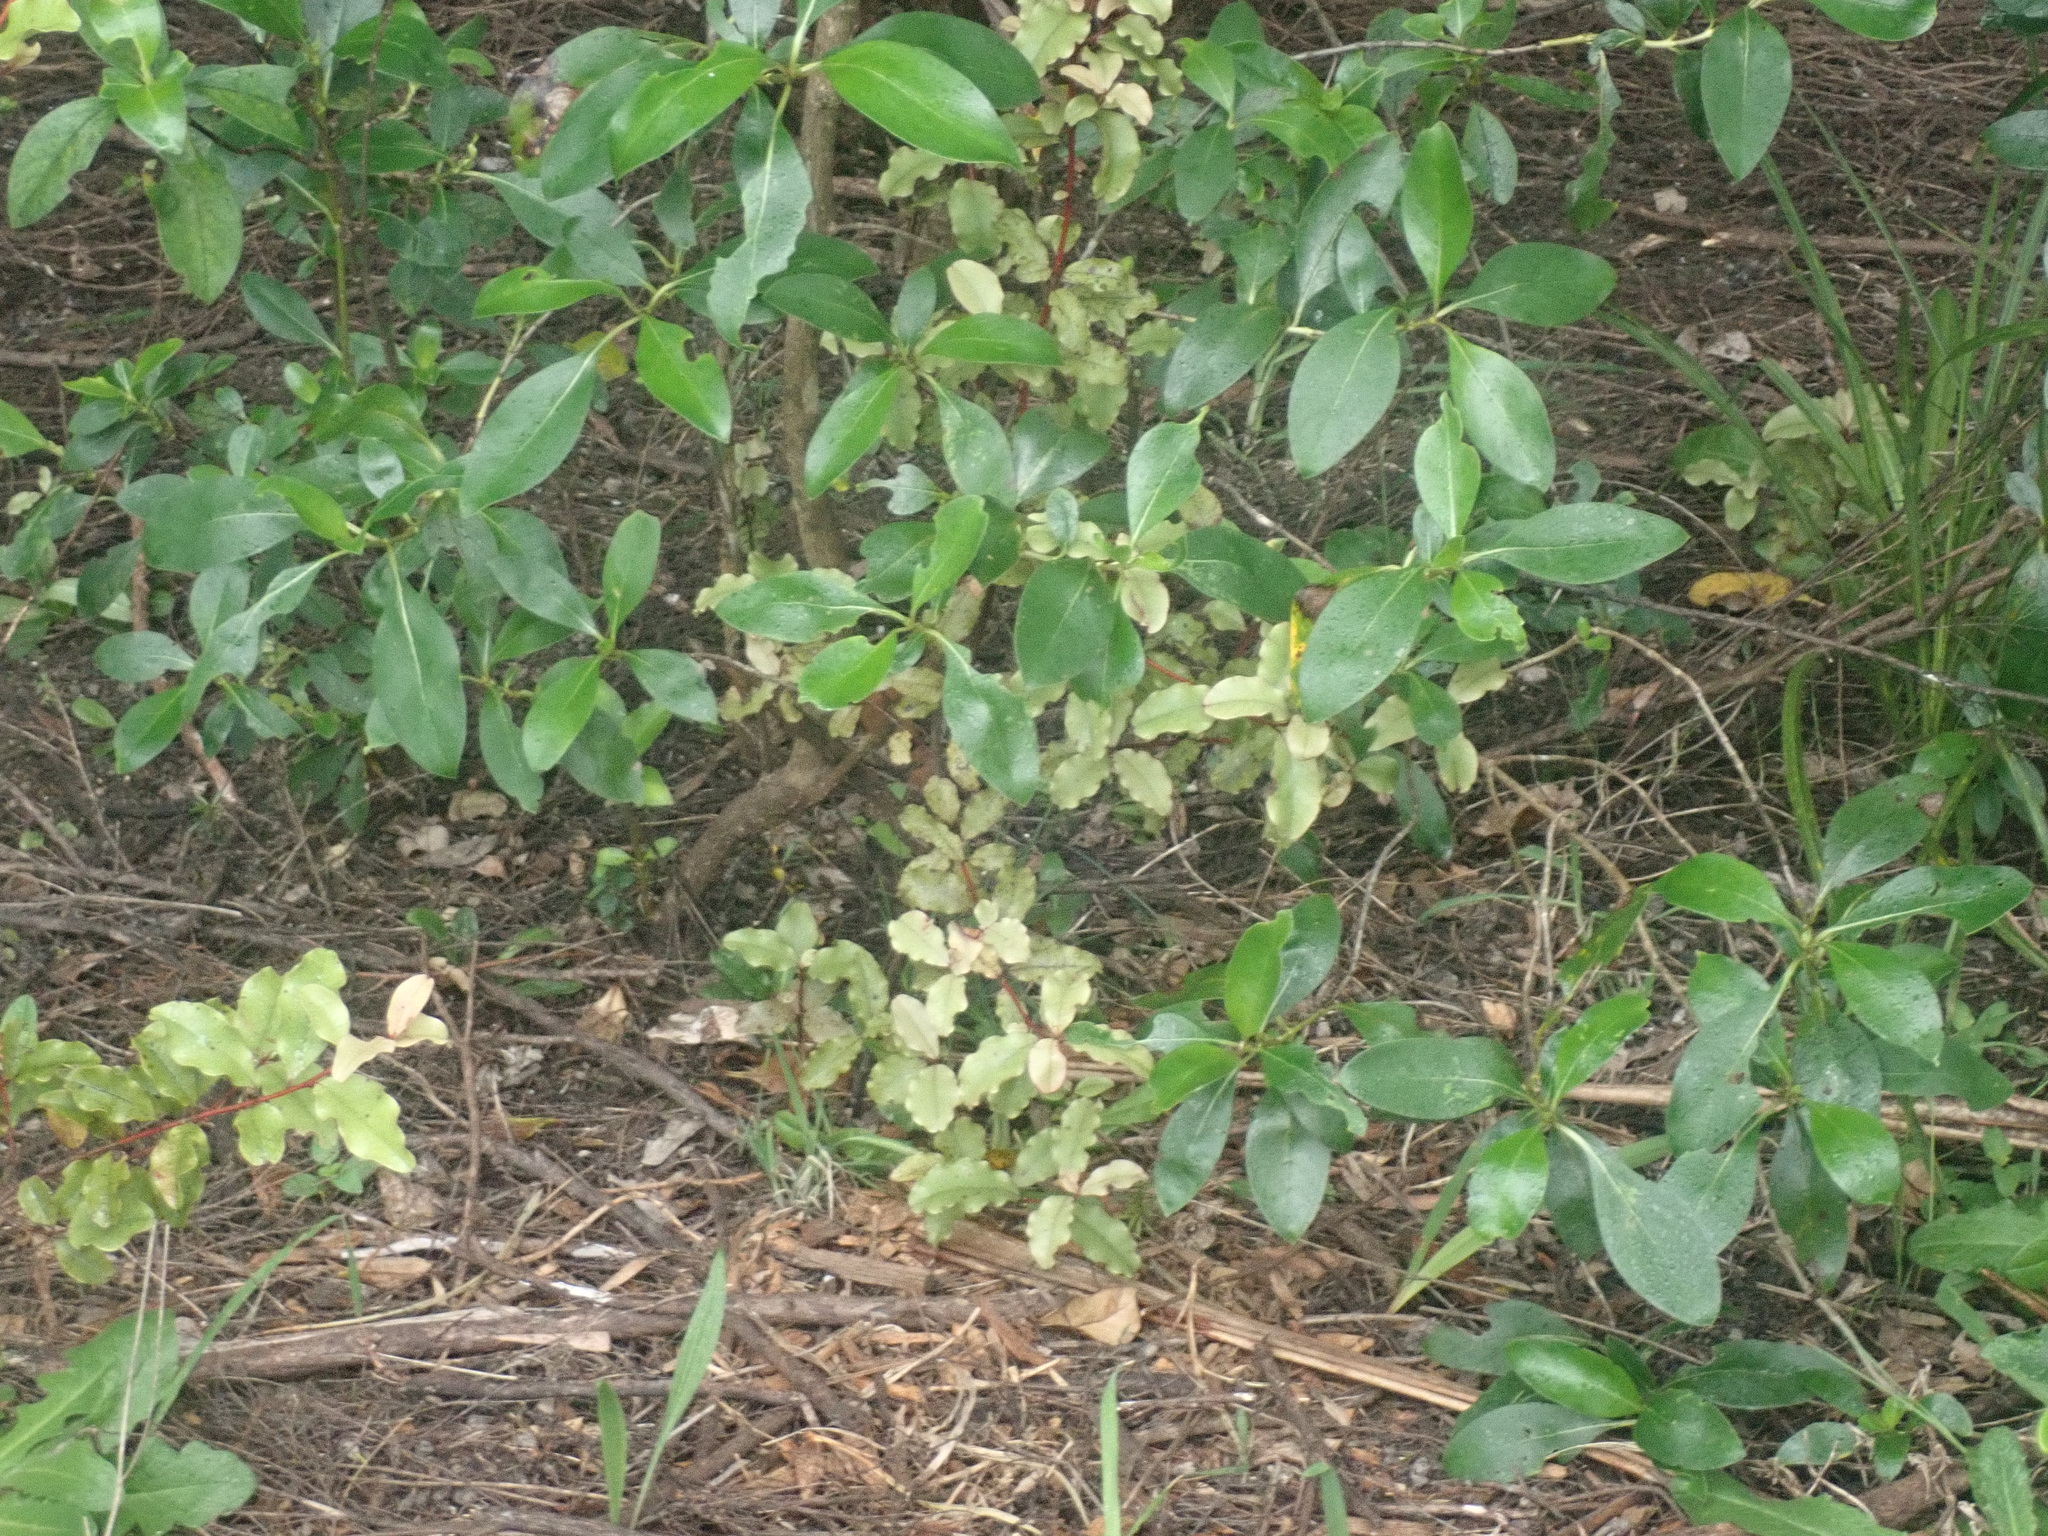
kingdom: Plantae
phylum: Tracheophyta
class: Magnoliopsida
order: Ericales
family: Primulaceae
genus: Myrsine
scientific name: Myrsine australis
